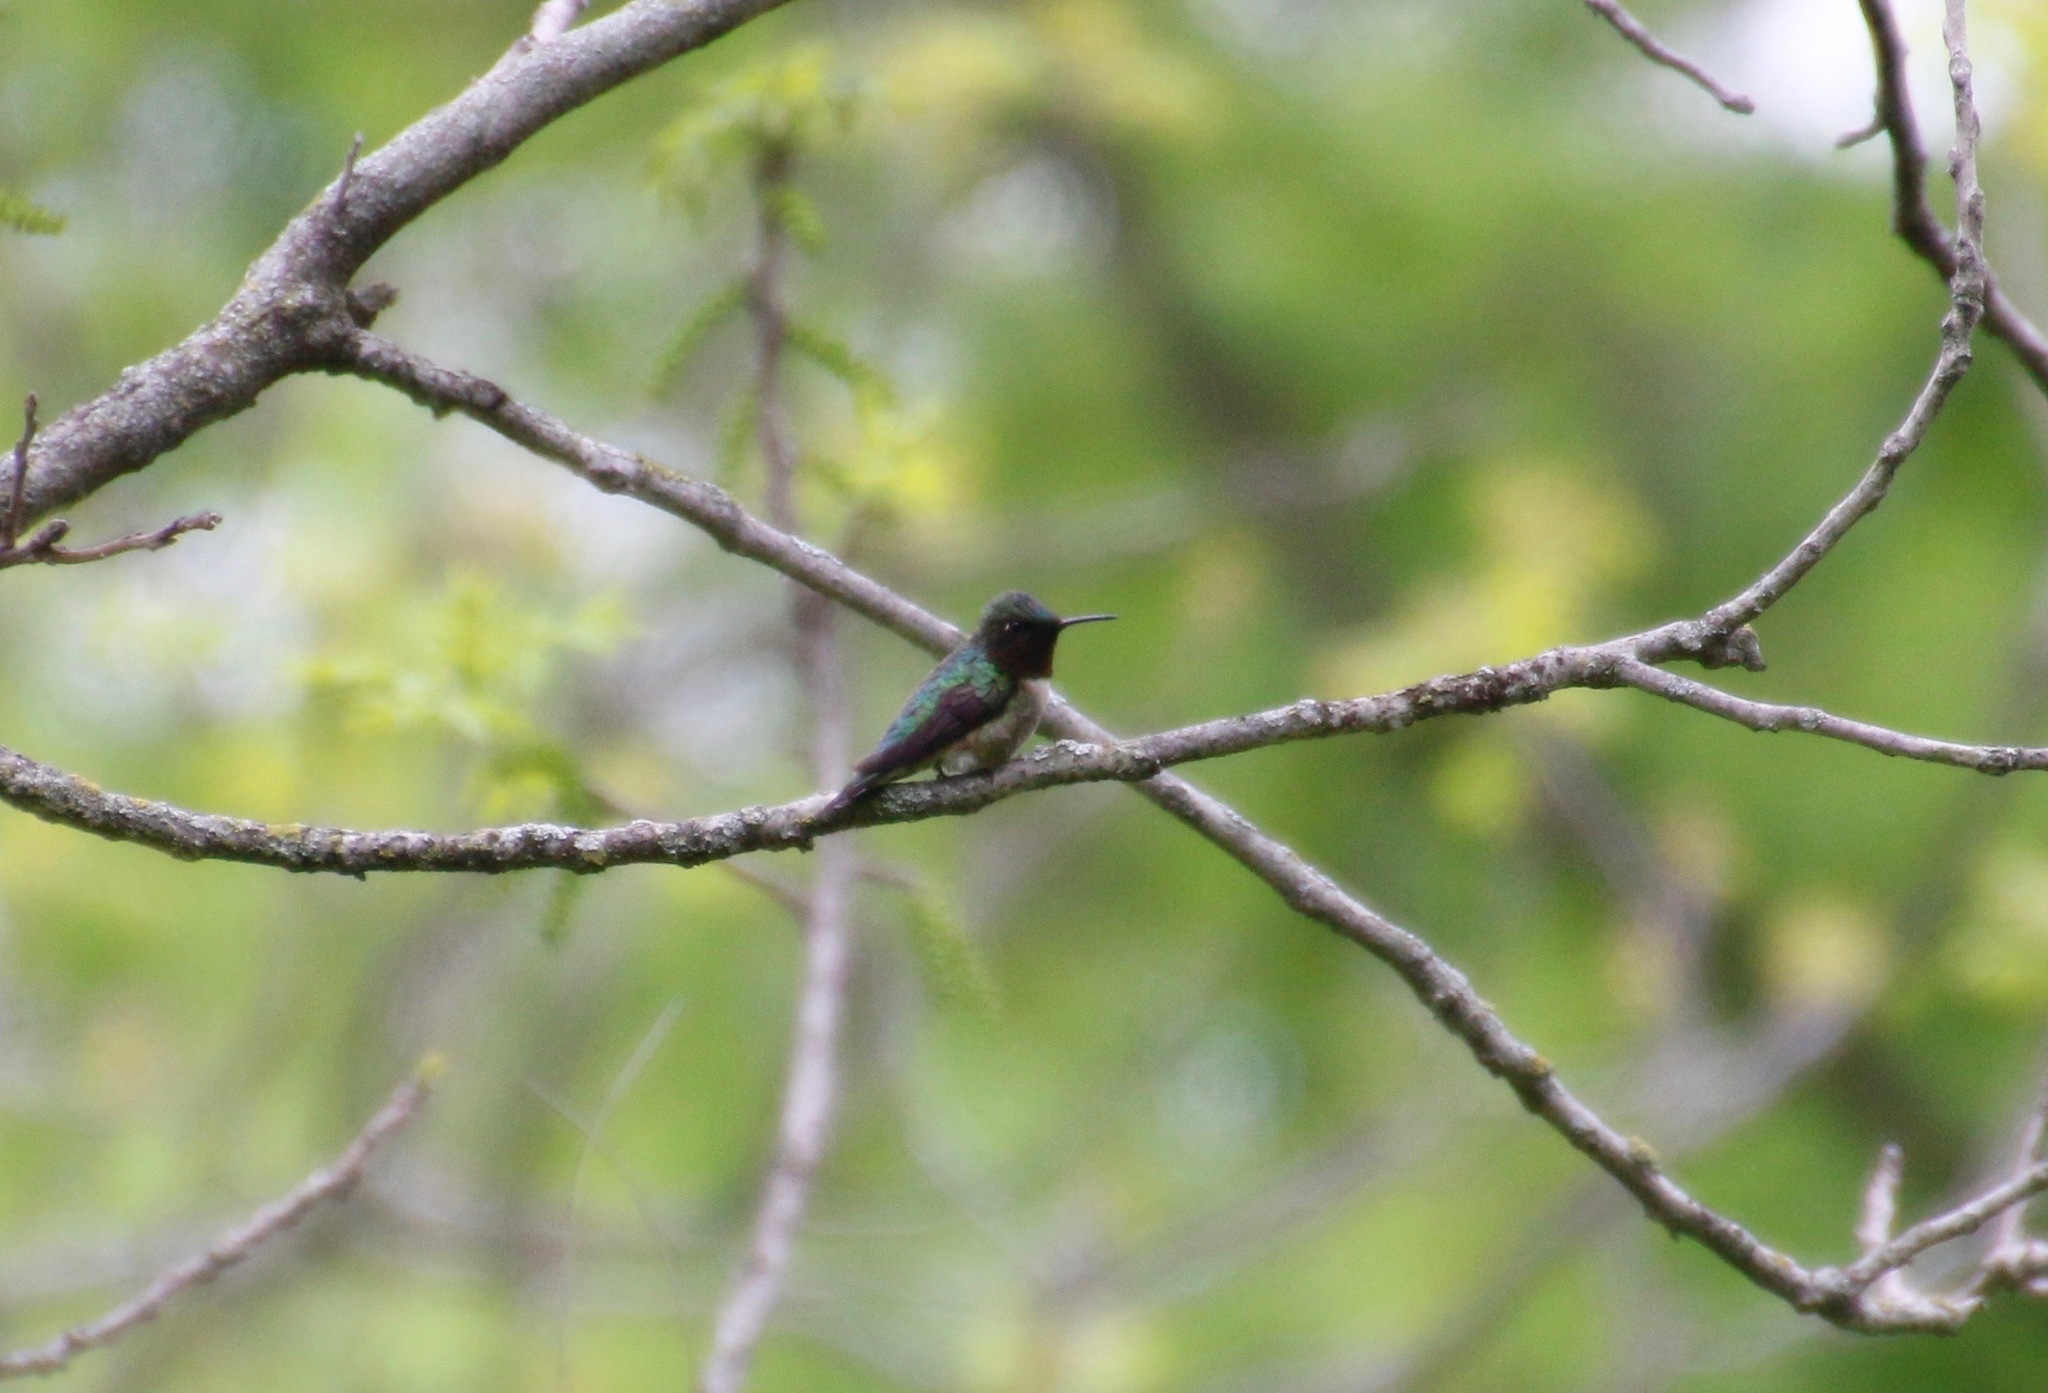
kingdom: Animalia
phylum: Chordata
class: Aves
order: Apodiformes
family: Trochilidae
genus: Archilochus
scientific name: Archilochus colubris
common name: Ruby-throated hummingbird
